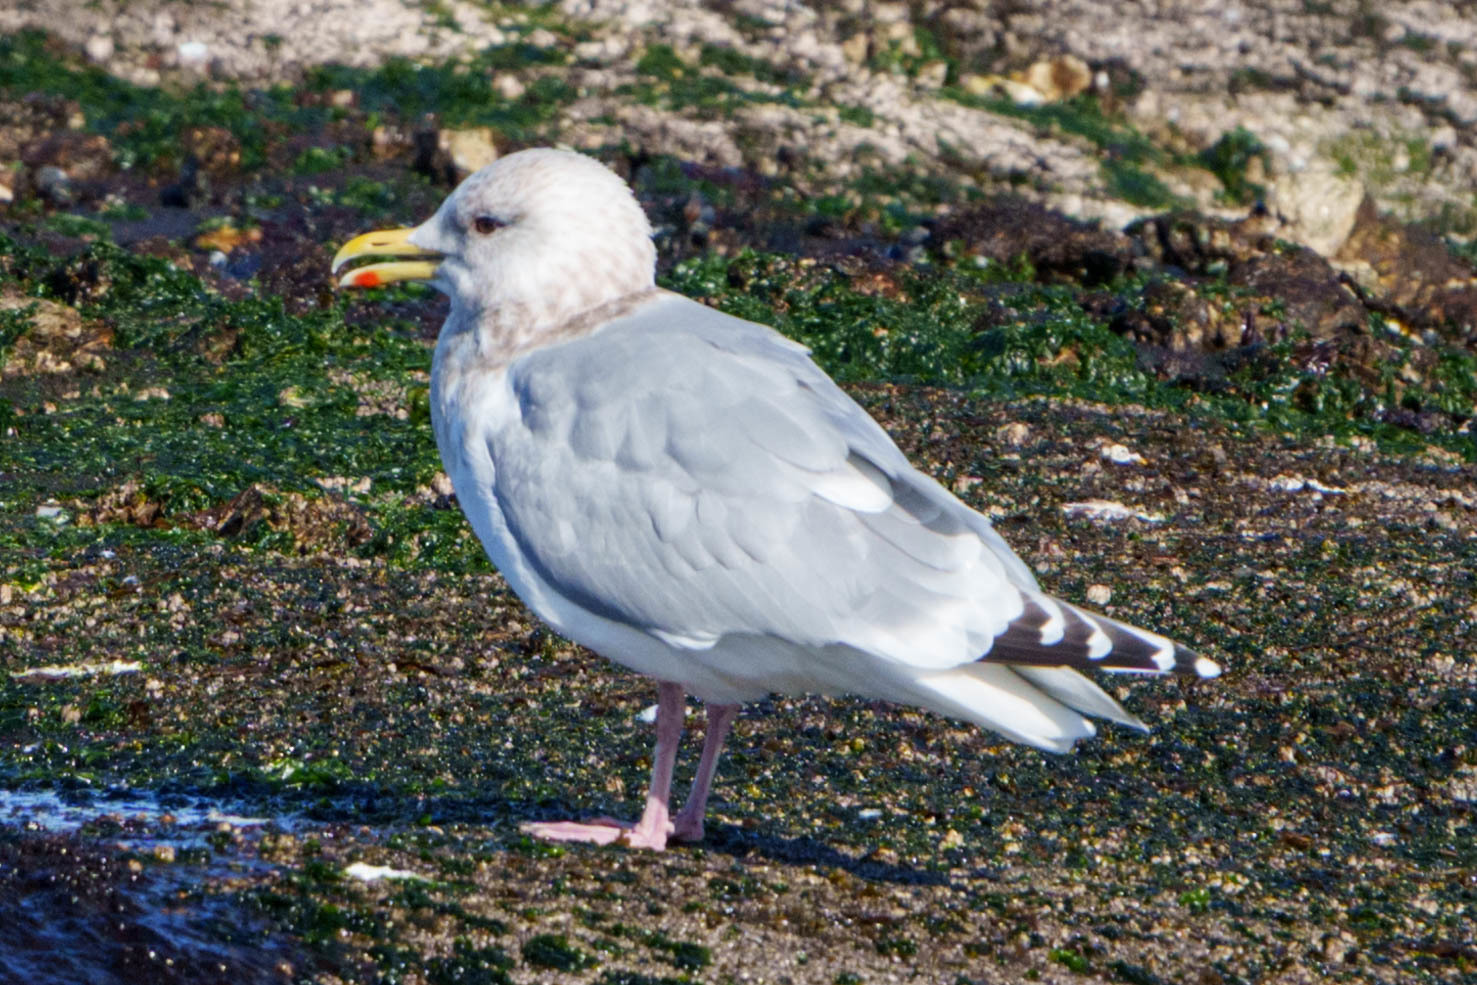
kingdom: Animalia
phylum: Chordata
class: Aves
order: Charadriiformes
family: Laridae
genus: Larus
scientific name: Larus glaucoides
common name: Iceland gull
